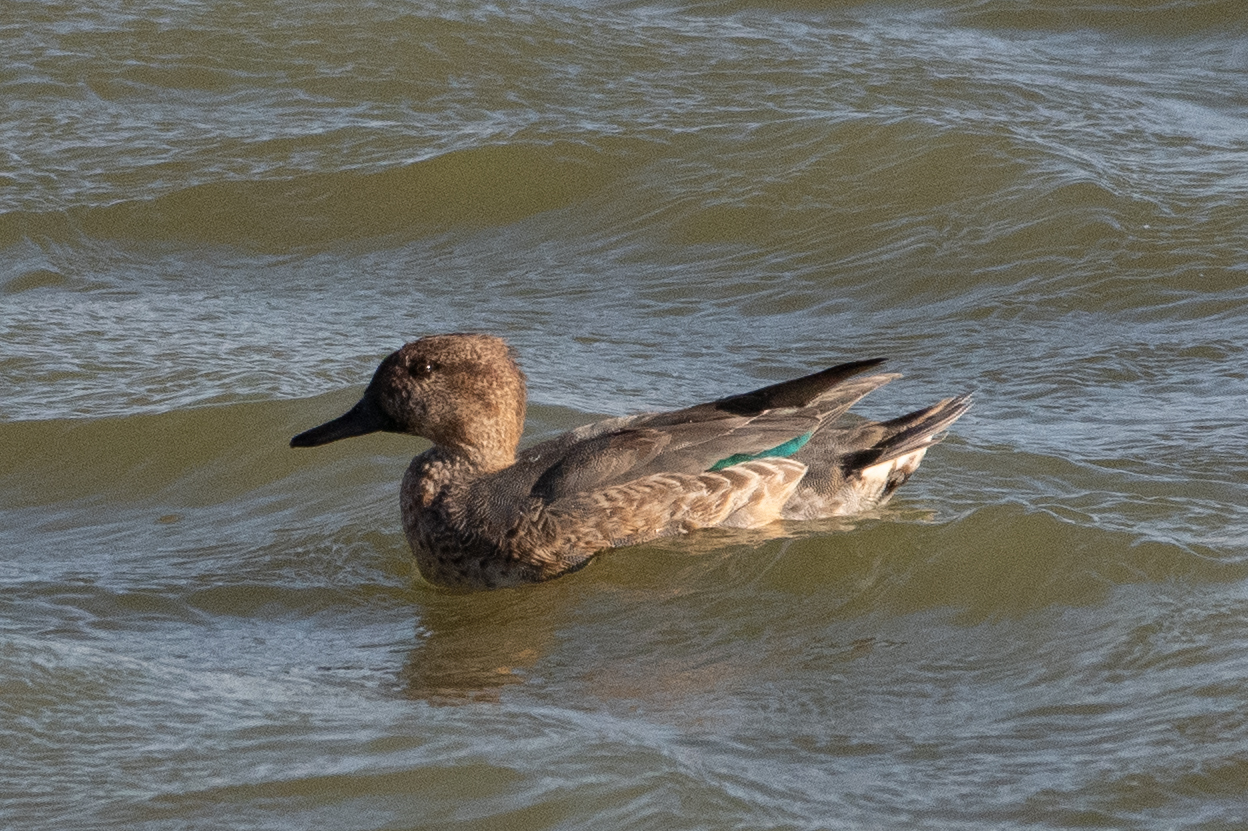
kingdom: Animalia
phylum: Chordata
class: Aves
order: Anseriformes
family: Anatidae
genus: Anas
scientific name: Anas crecca
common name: Eurasian teal
